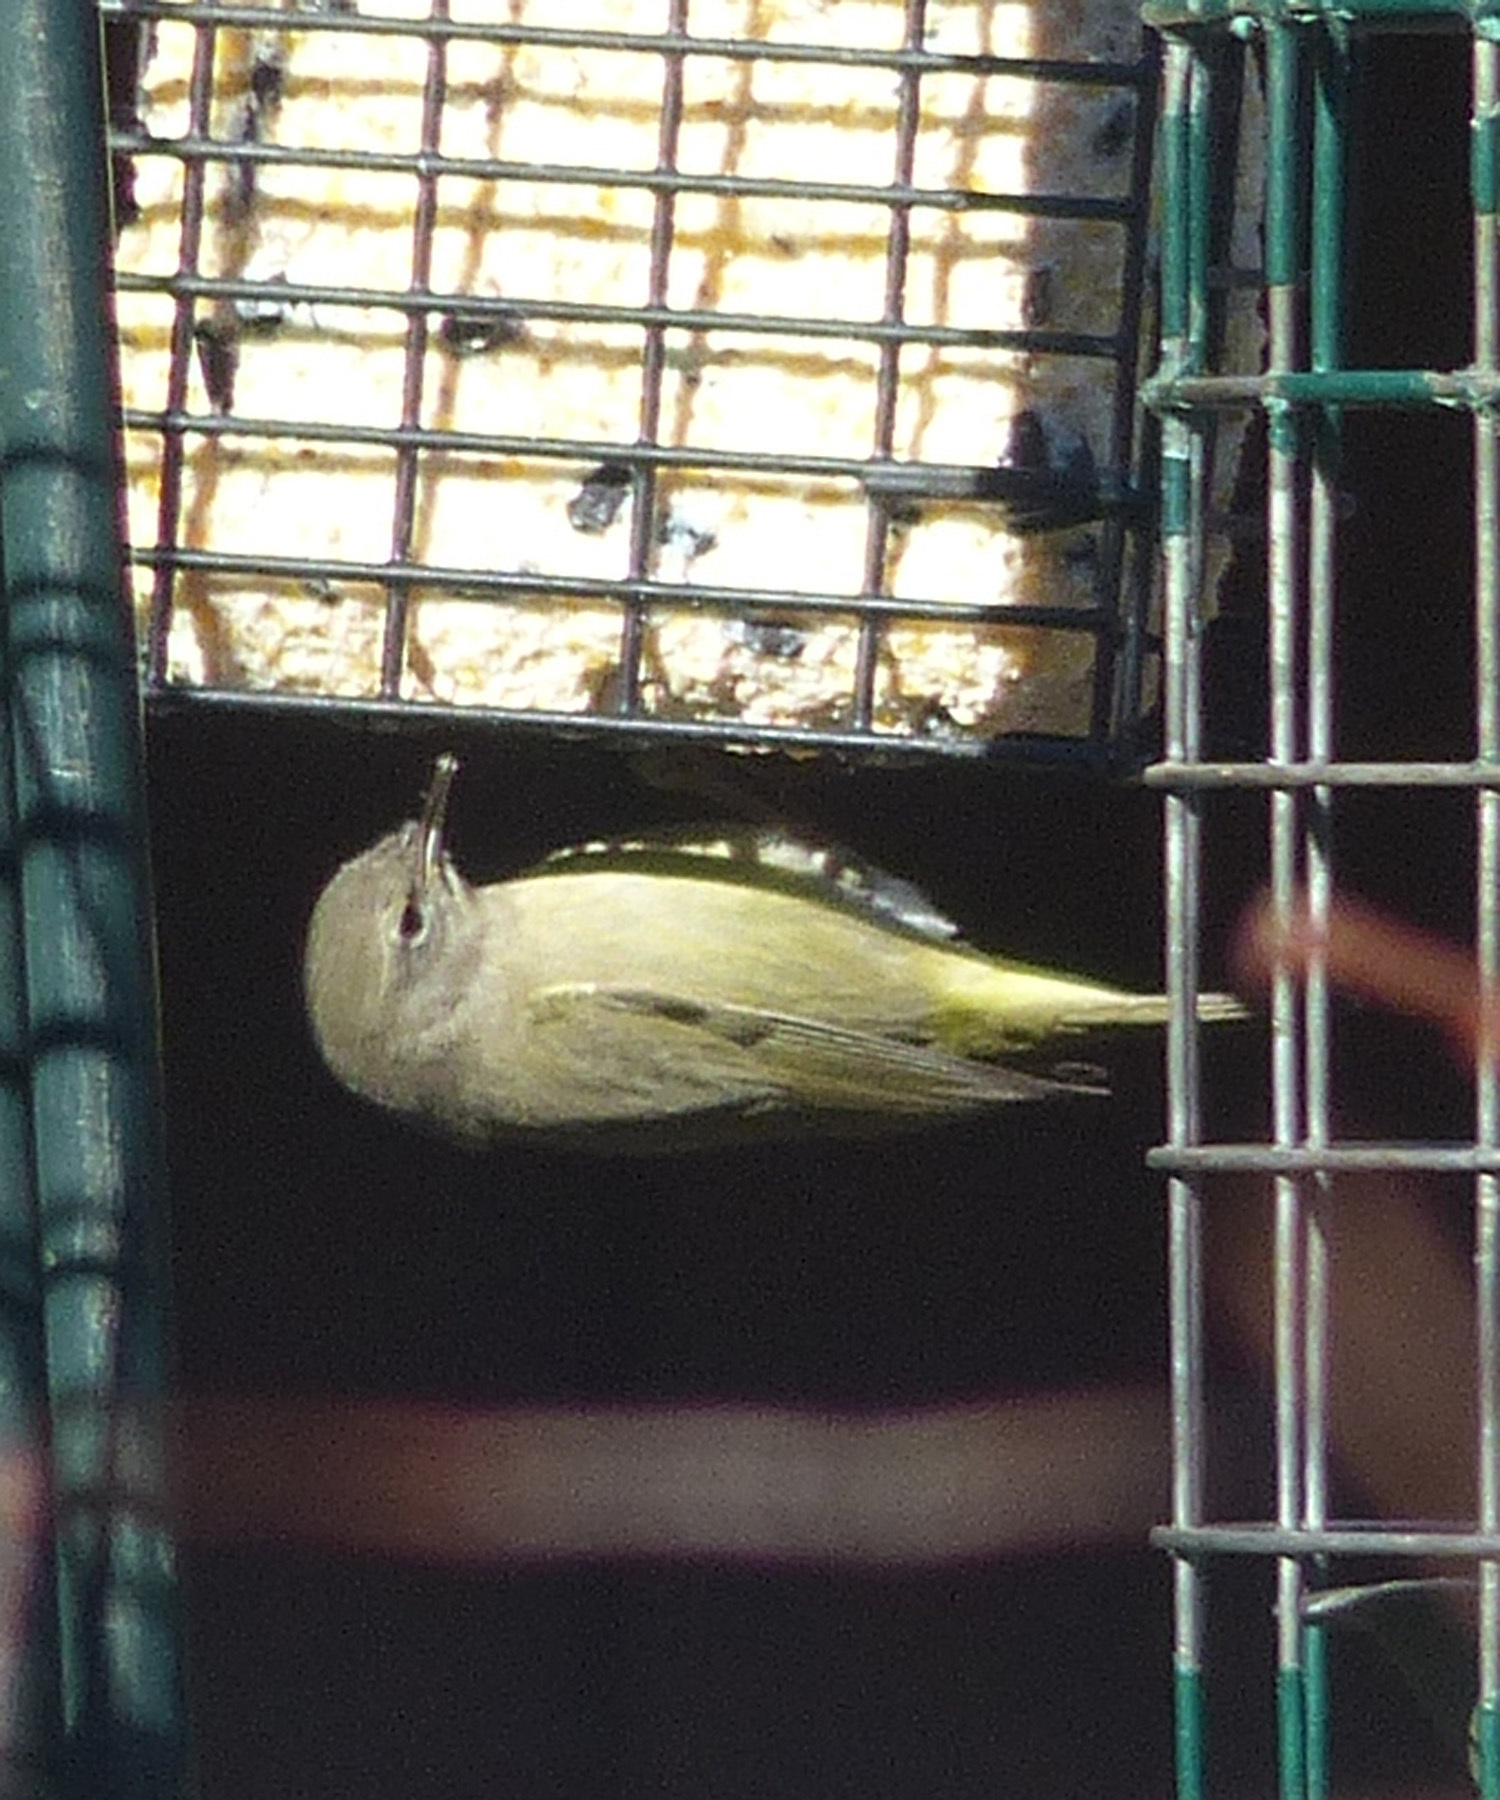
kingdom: Animalia
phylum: Chordata
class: Aves
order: Passeriformes
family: Parulidae
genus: Leiothlypis
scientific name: Leiothlypis celata
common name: Orange-crowned warbler
